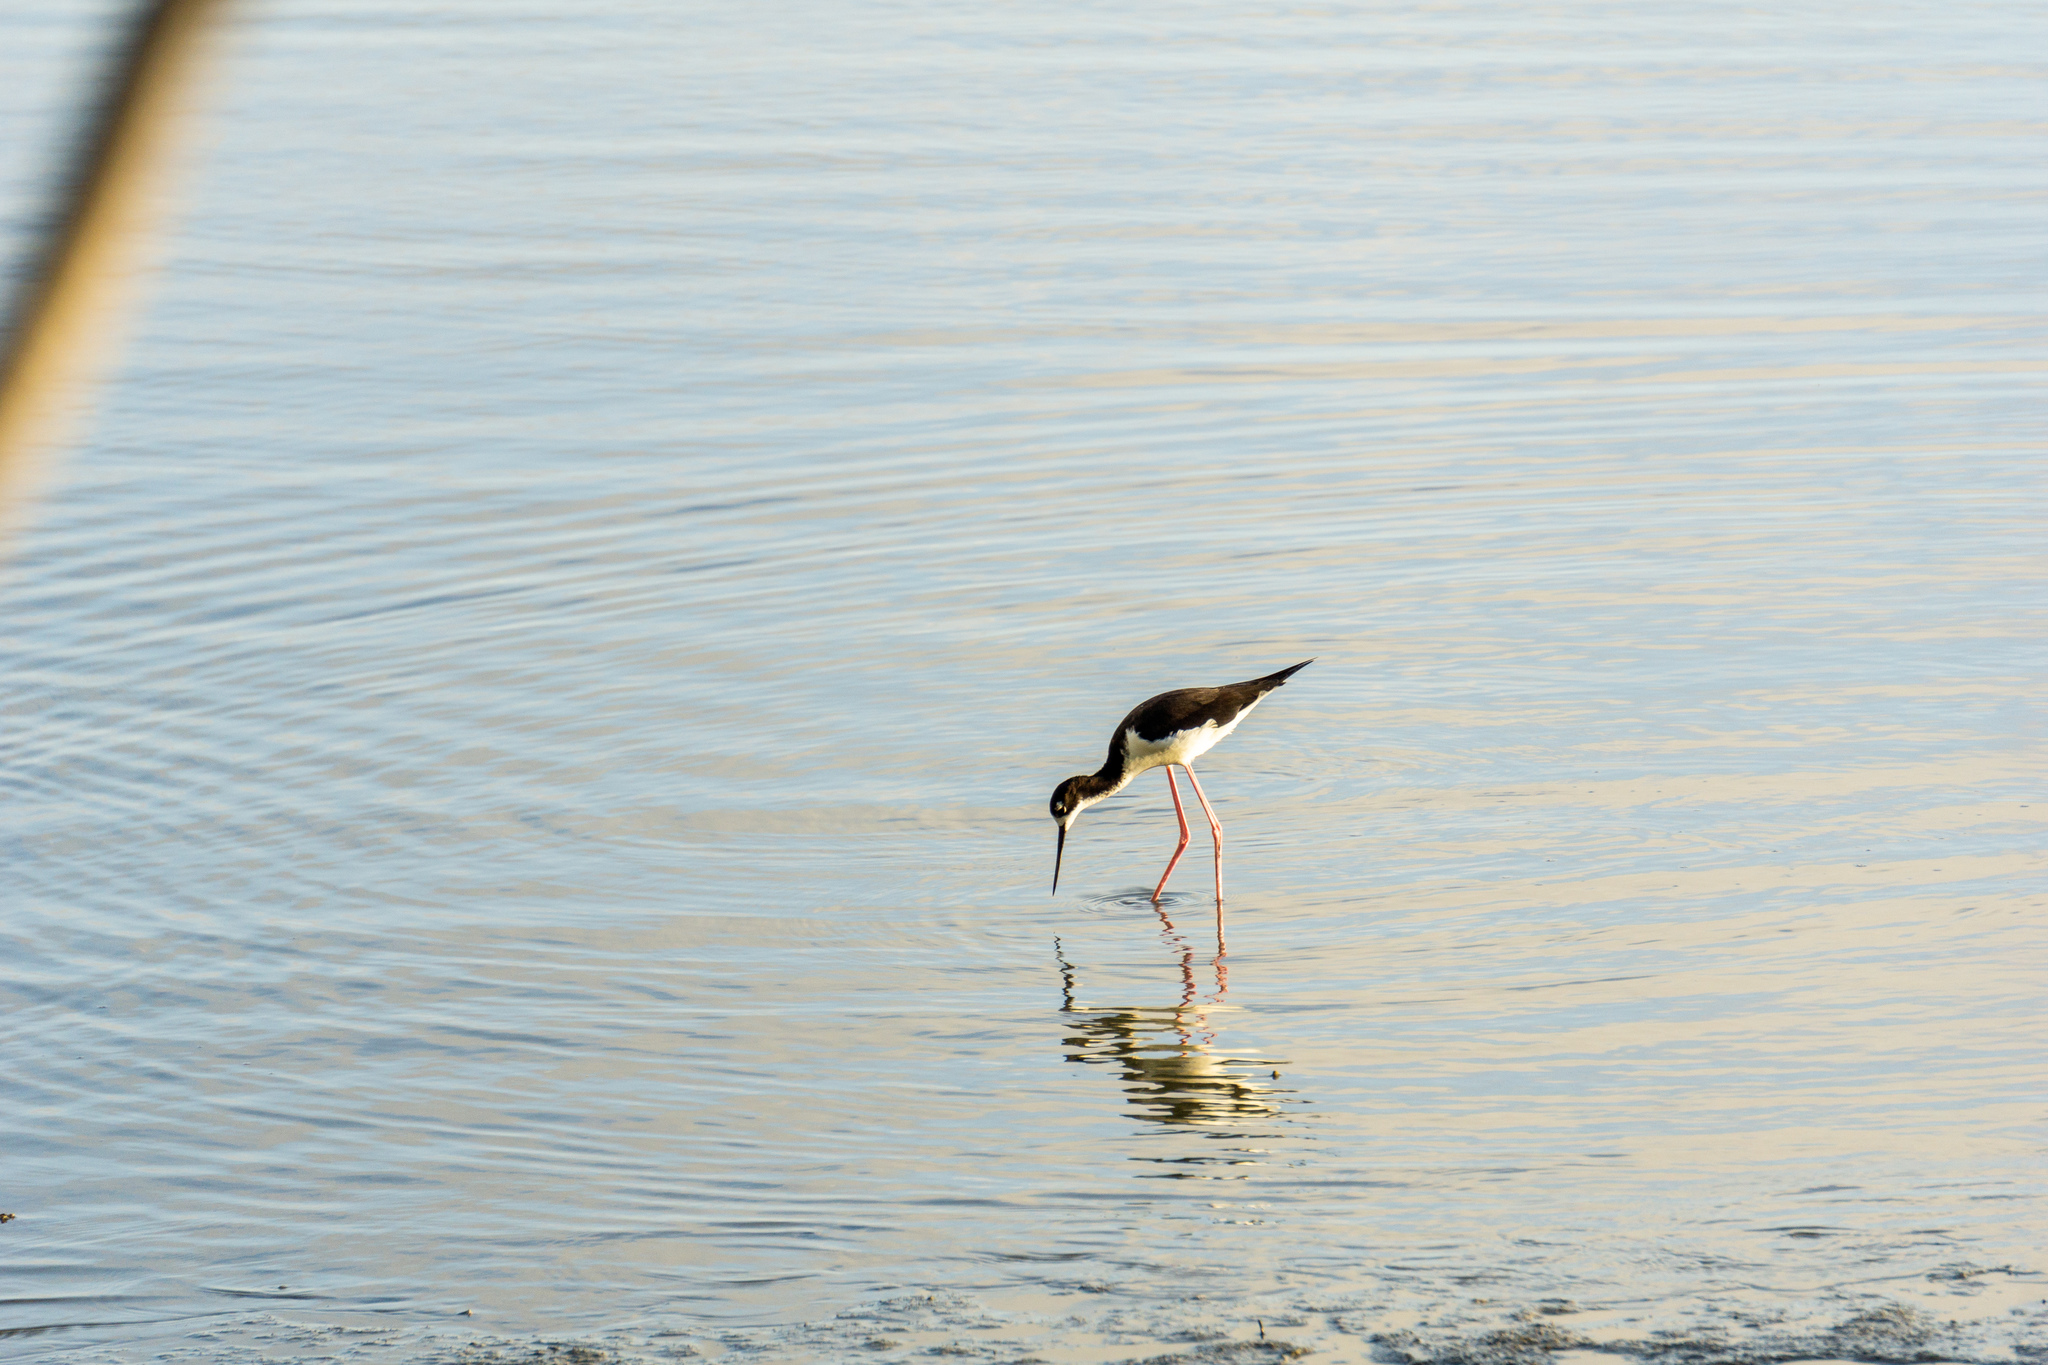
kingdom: Animalia
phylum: Chordata
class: Aves
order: Charadriiformes
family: Recurvirostridae
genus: Himantopus
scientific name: Himantopus mexicanus
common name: Black-necked stilt
